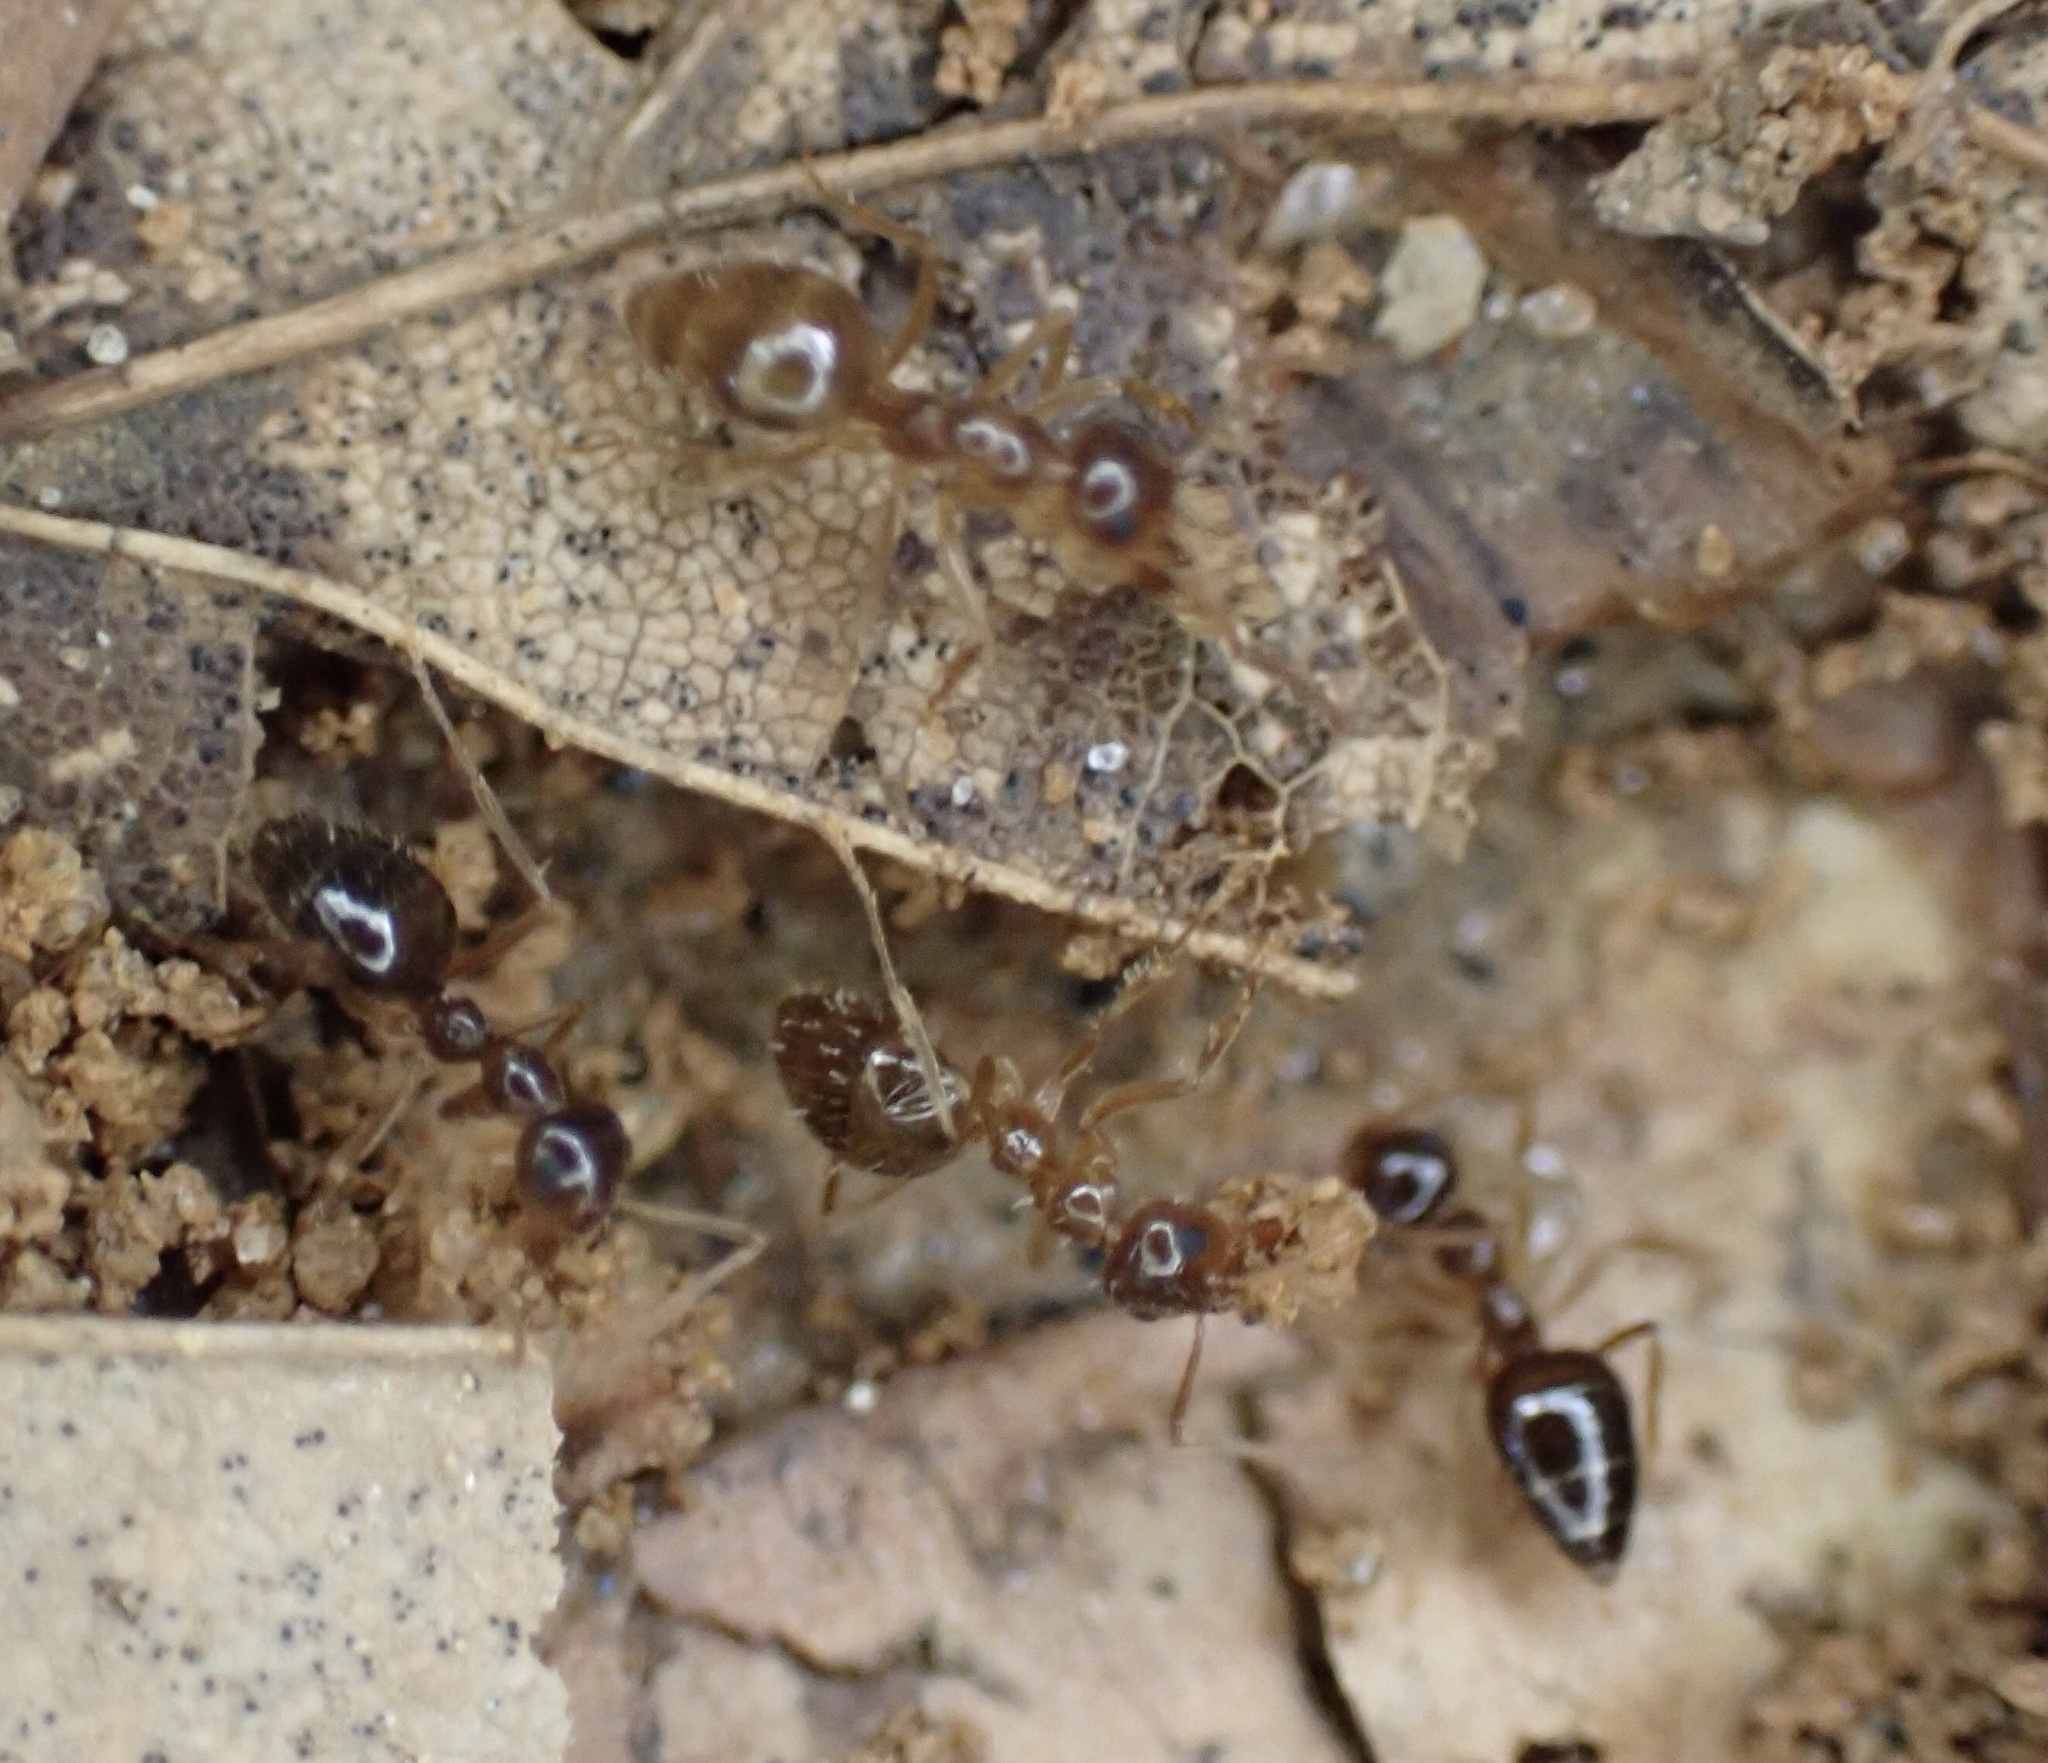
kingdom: Animalia
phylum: Arthropoda
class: Insecta
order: Hymenoptera
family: Formicidae
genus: Prenolepis
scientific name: Prenolepis imparis
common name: Small honey ant
